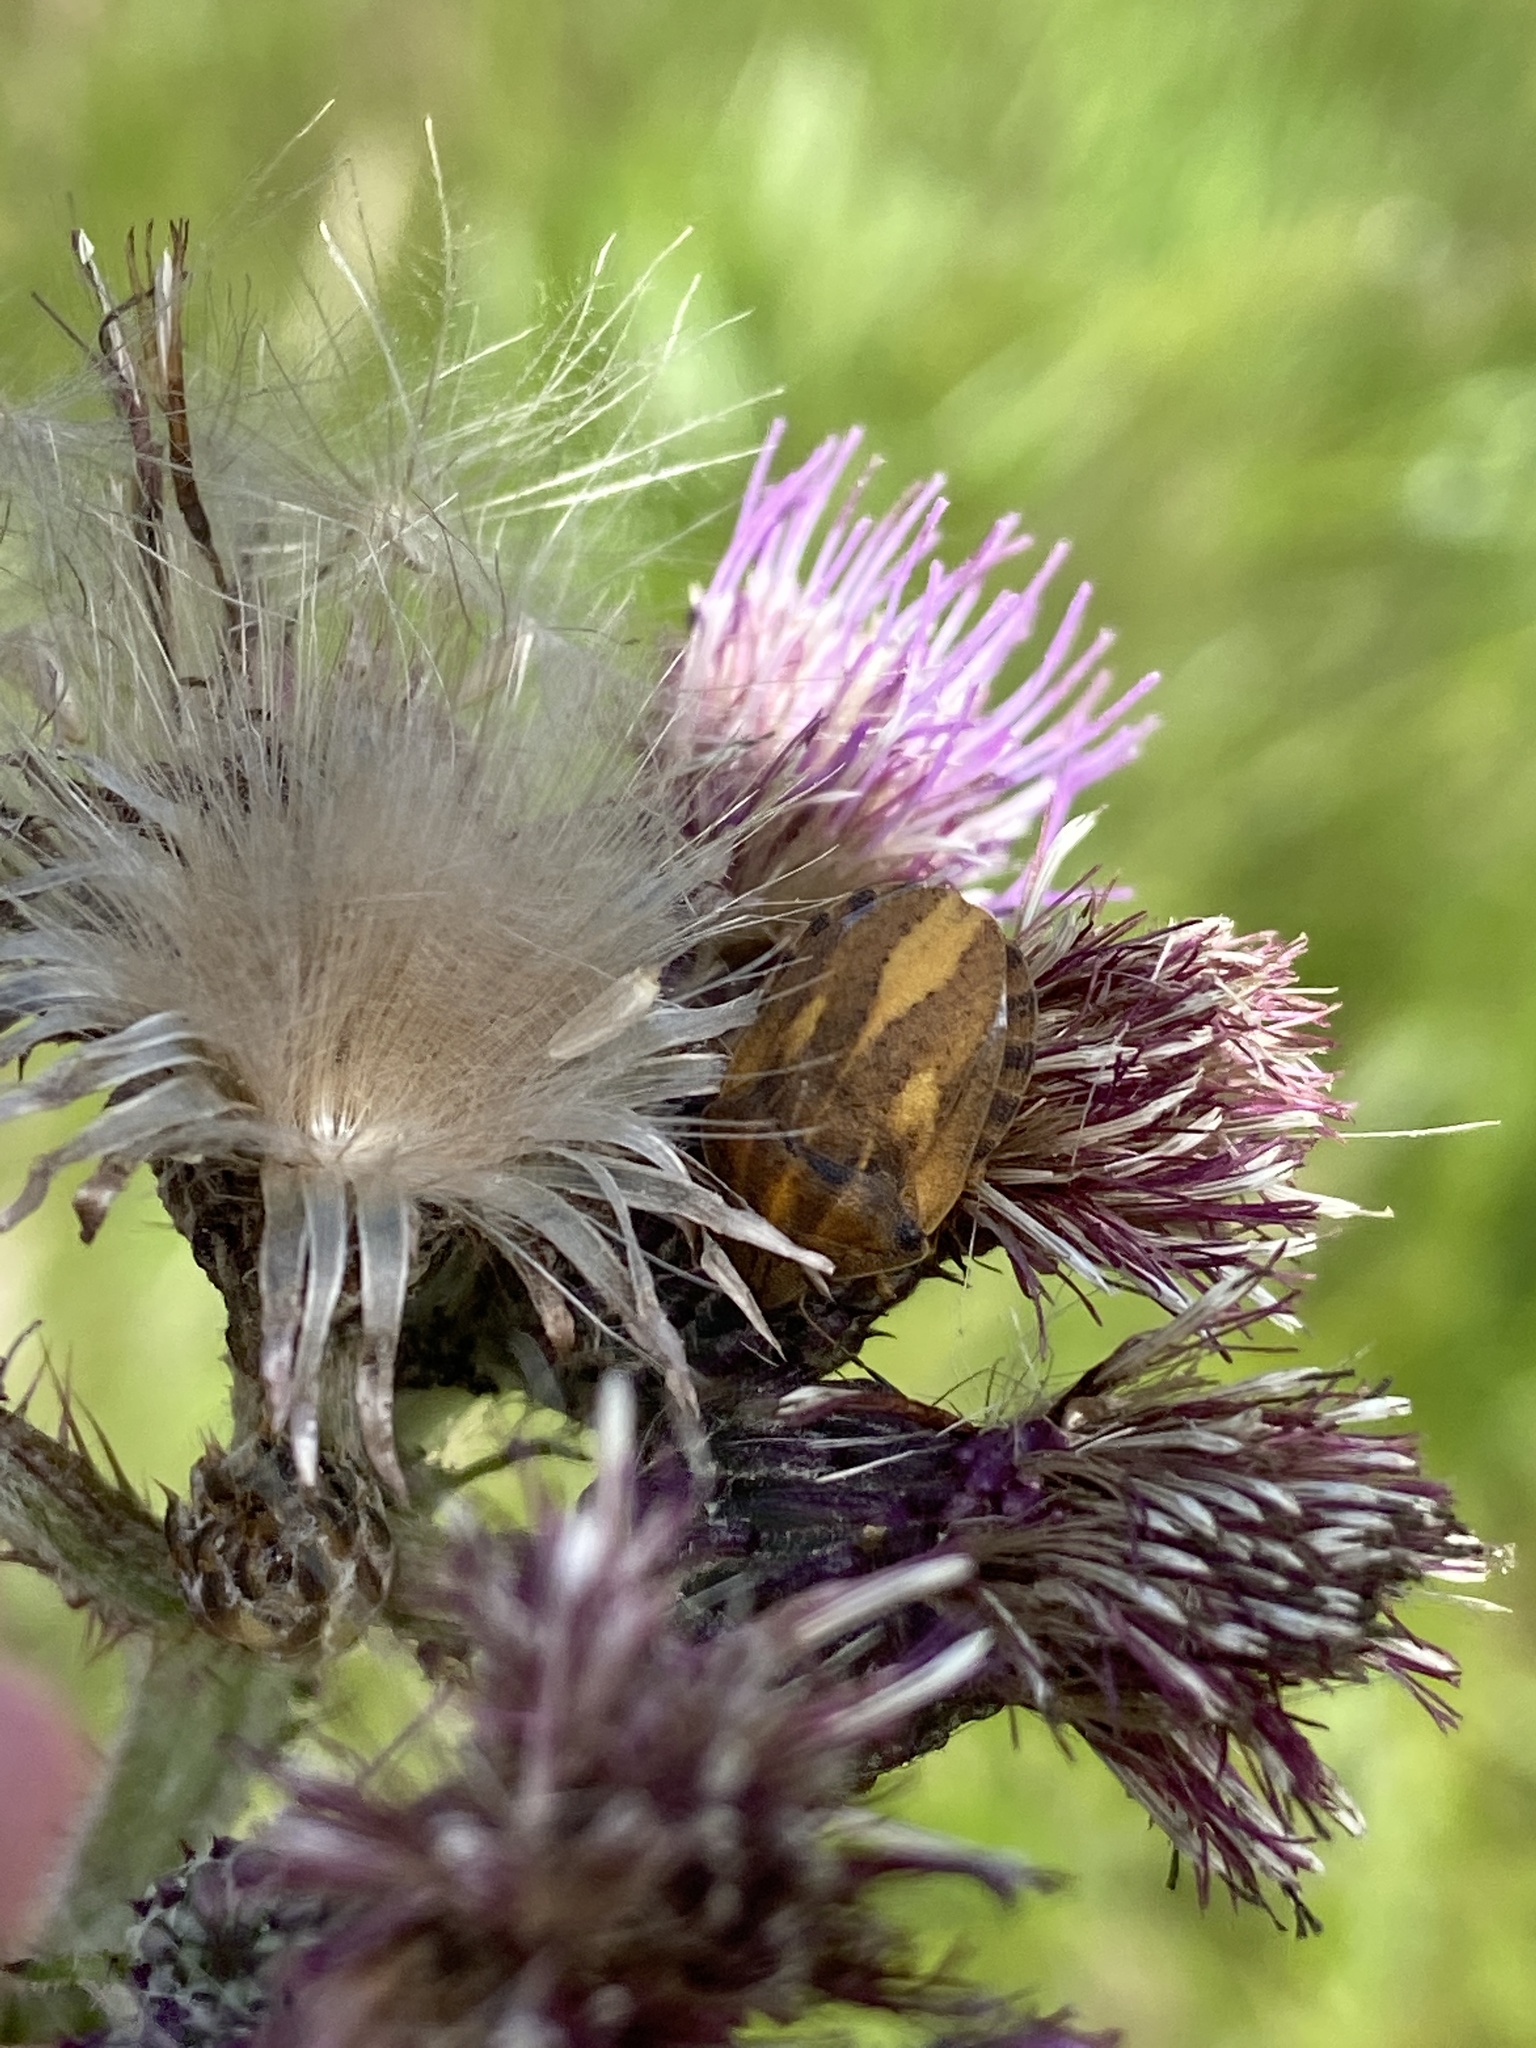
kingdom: Animalia
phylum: Arthropoda
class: Insecta
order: Hemiptera
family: Scutelleridae
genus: Eurygaster
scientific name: Eurygaster testudinaria
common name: Tortoise bug
